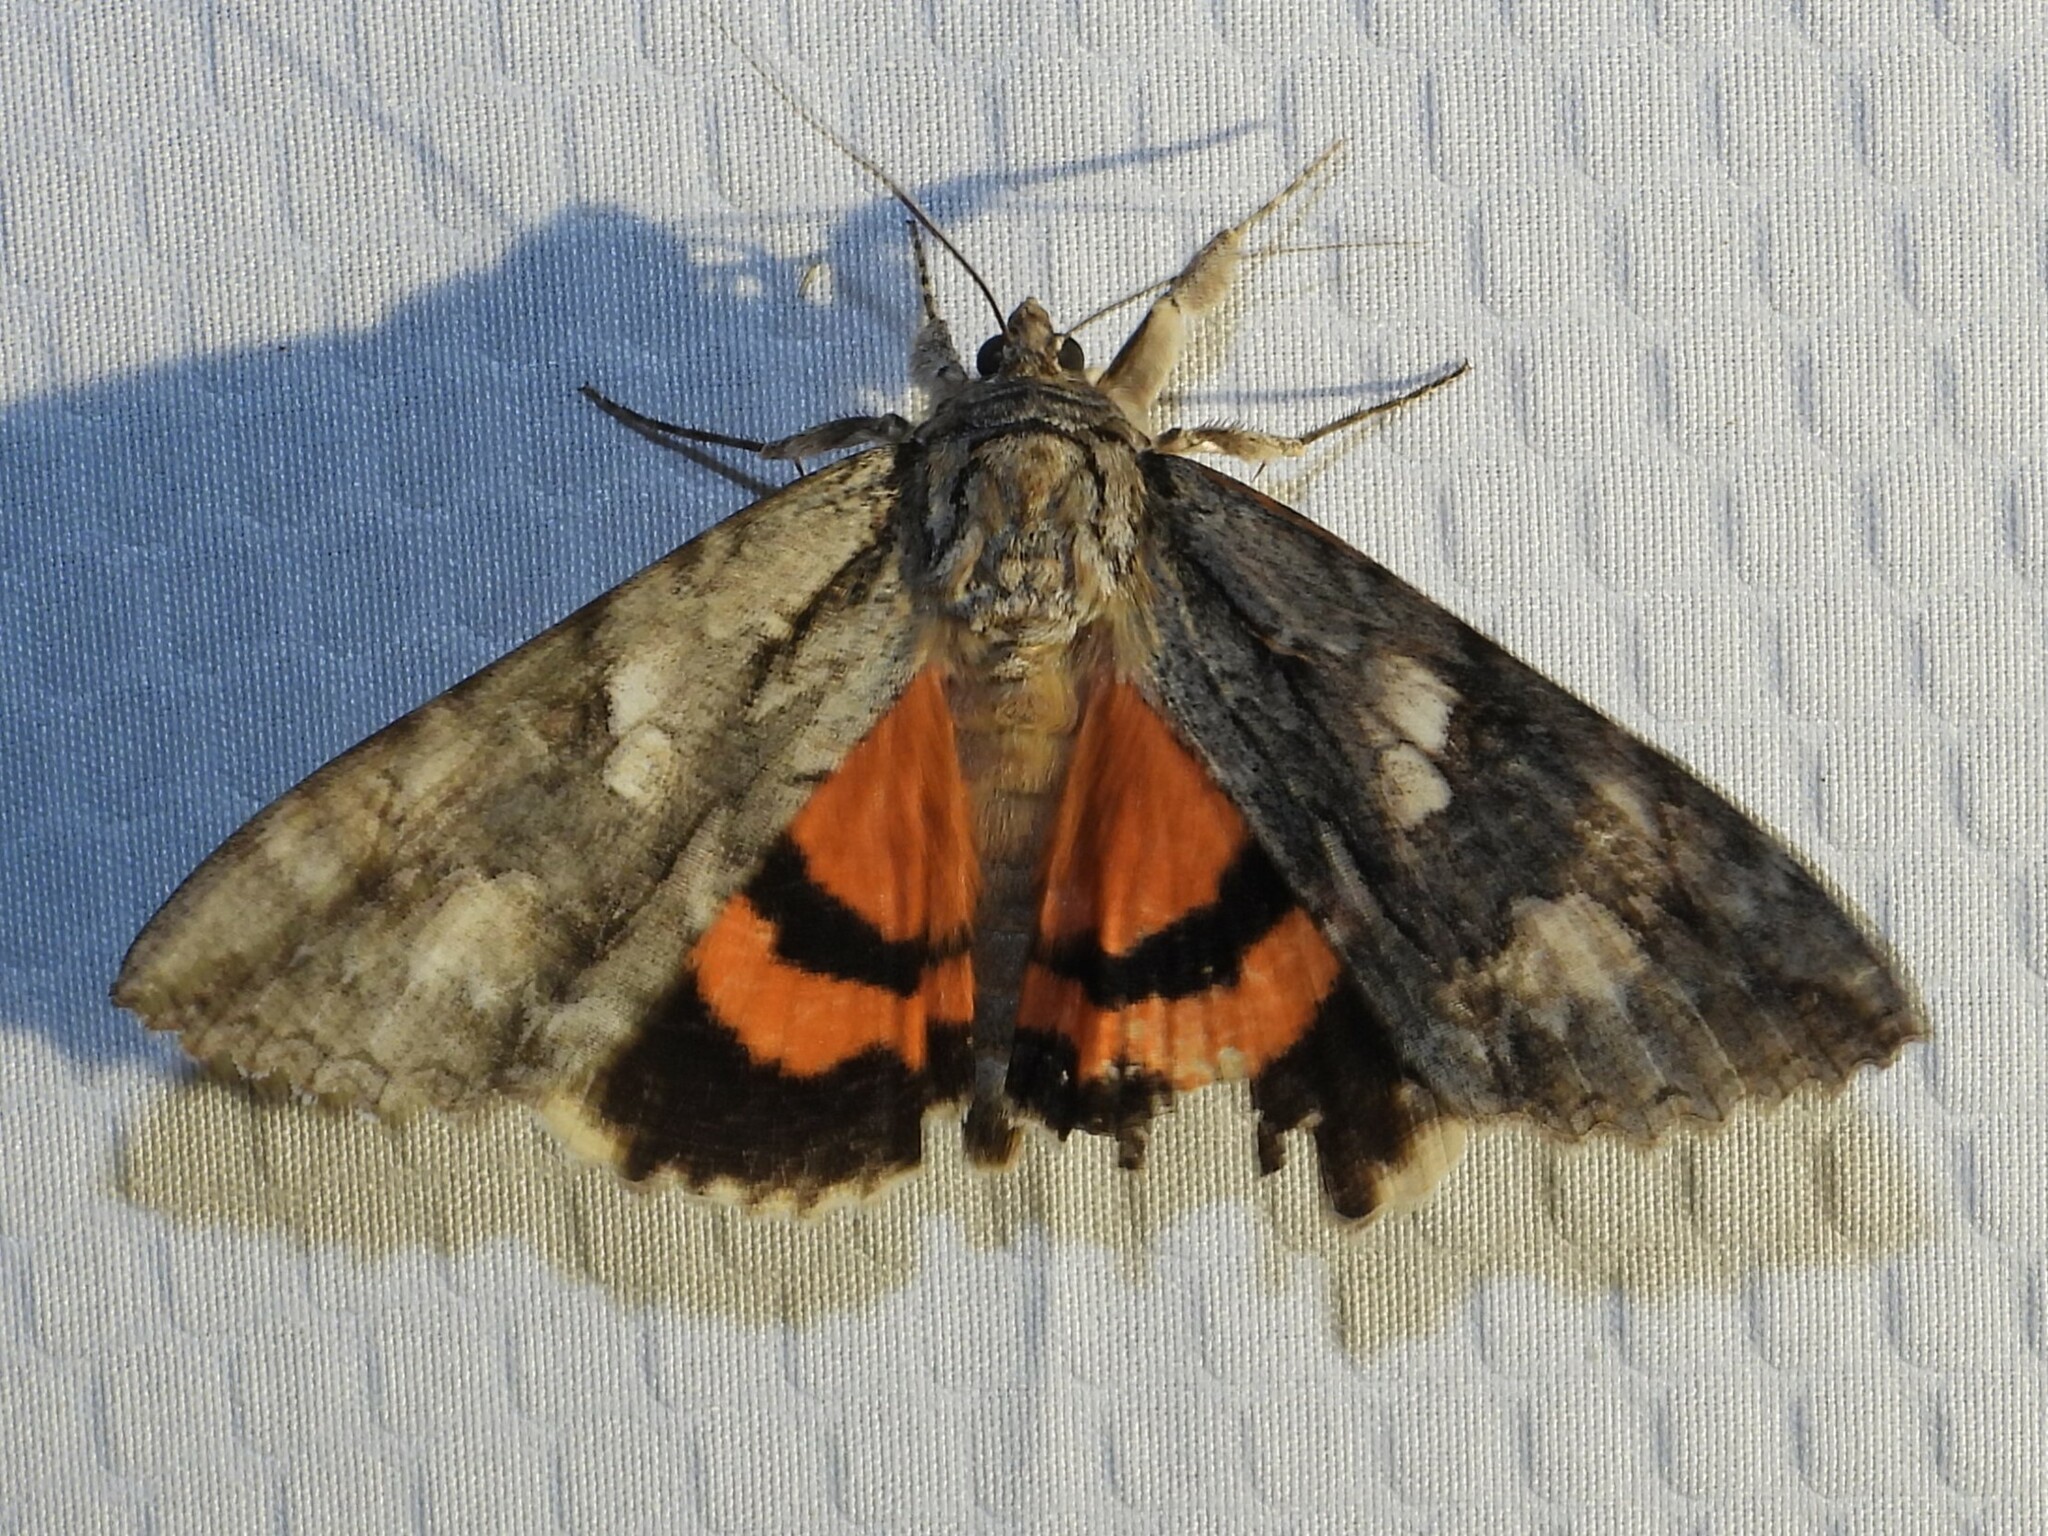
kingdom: Animalia
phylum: Arthropoda
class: Insecta
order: Lepidoptera
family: Erebidae
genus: Catocala
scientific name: Catocala parta
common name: Mother underwing
